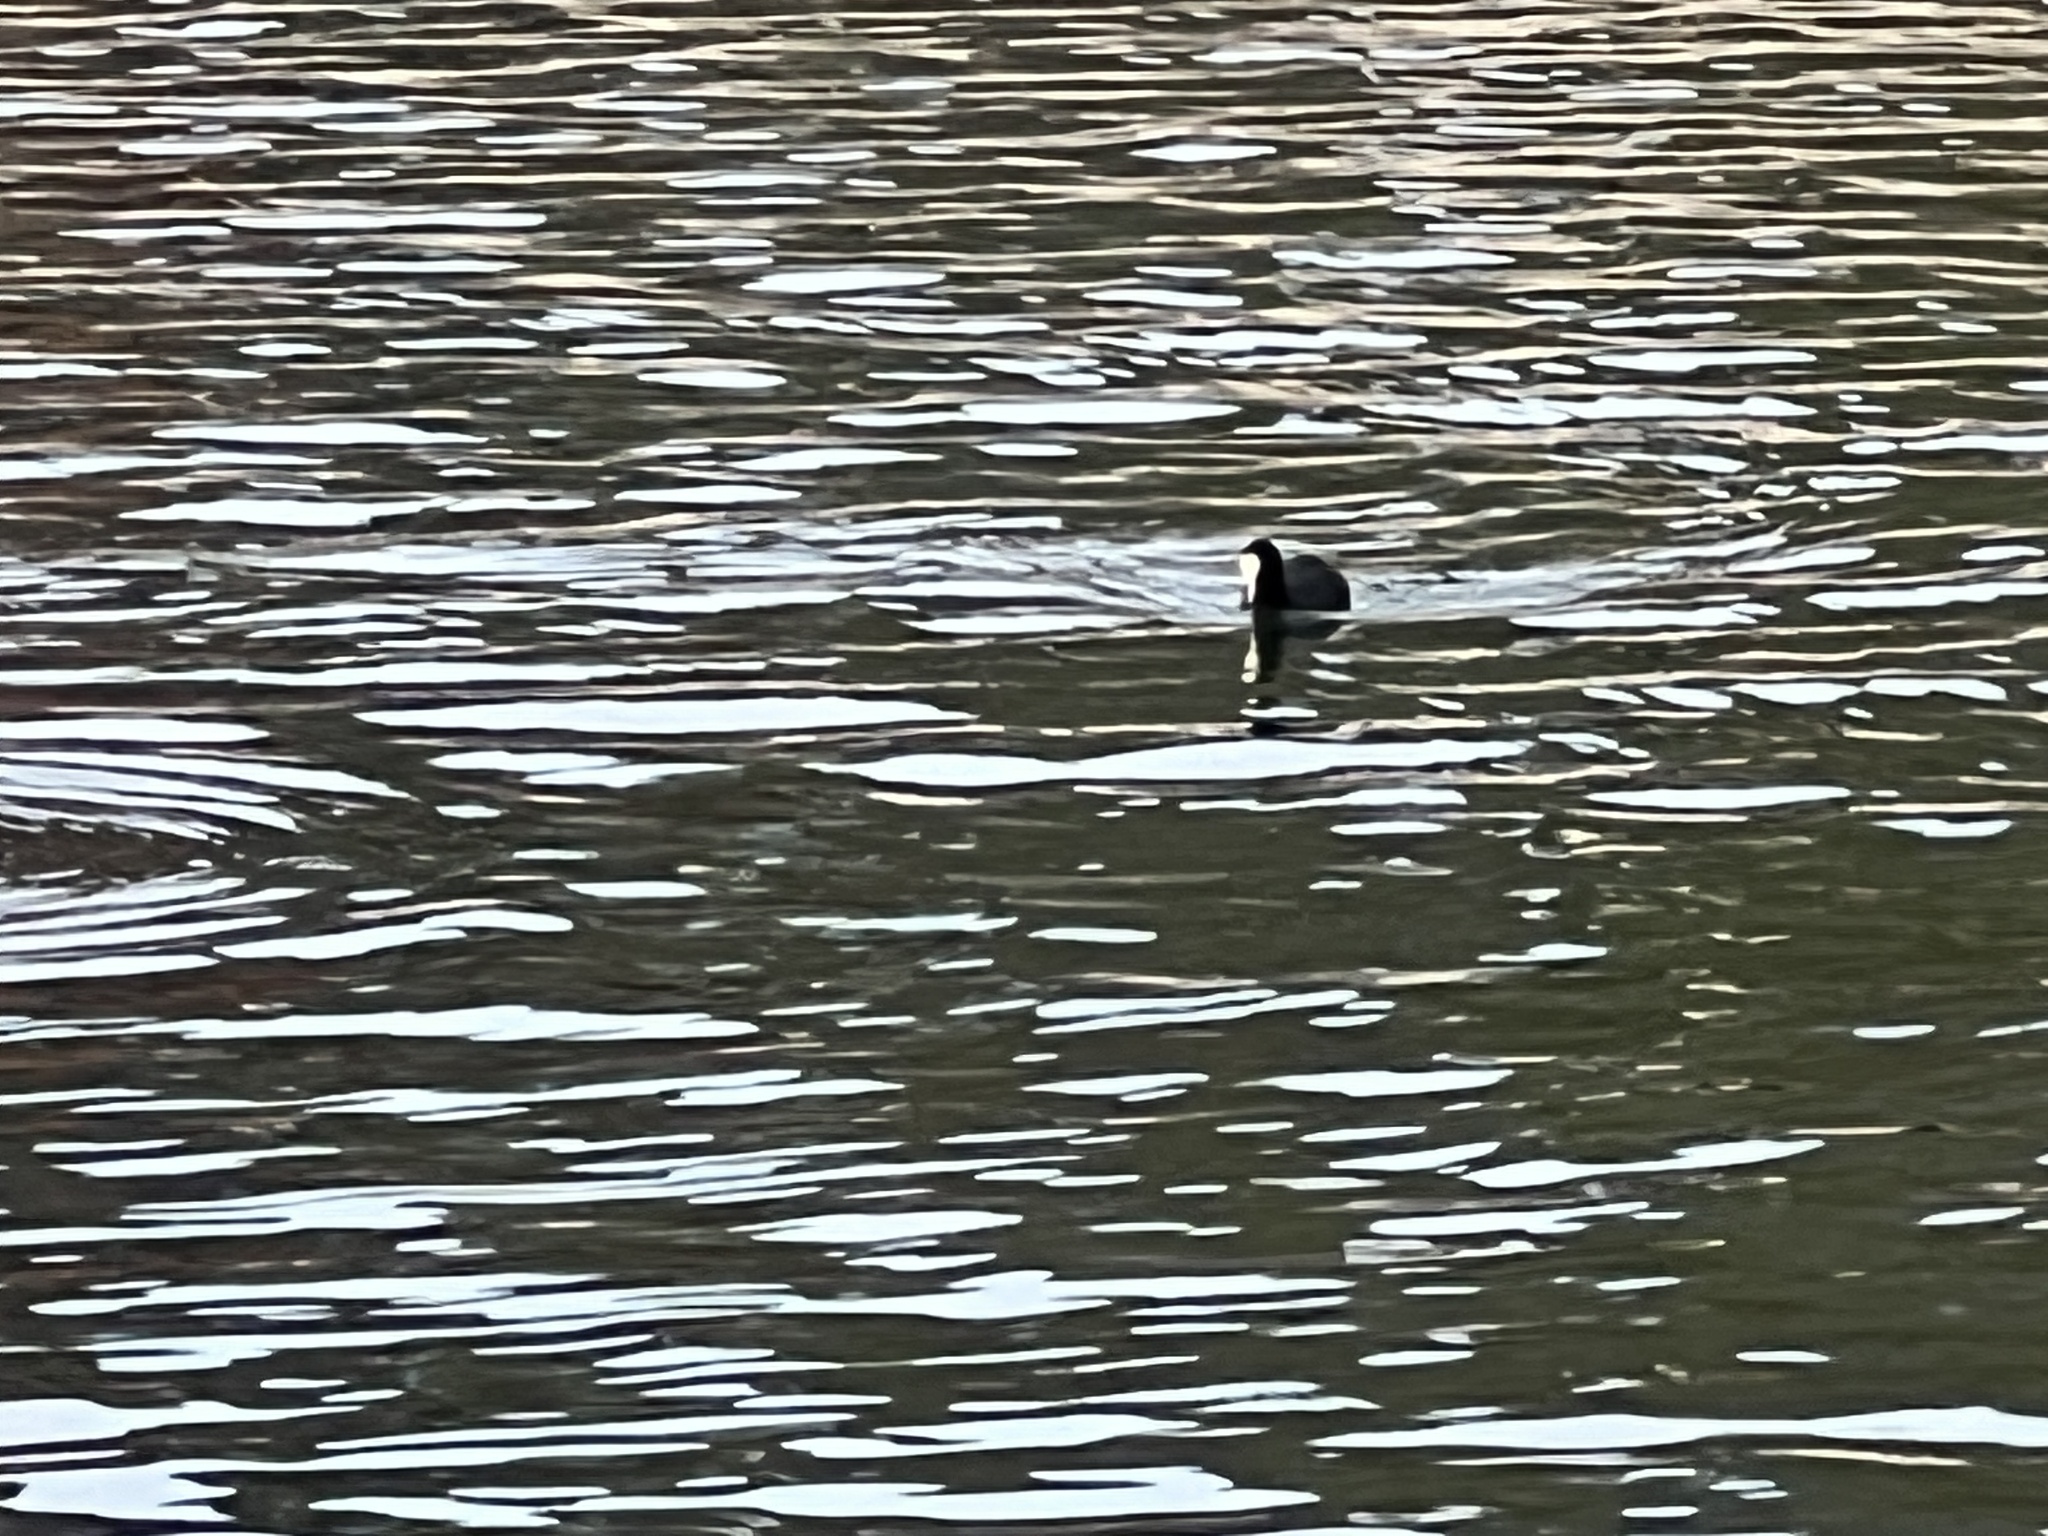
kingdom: Animalia
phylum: Chordata
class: Aves
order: Gruiformes
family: Rallidae
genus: Fulica
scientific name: Fulica atra
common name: Eurasian coot
